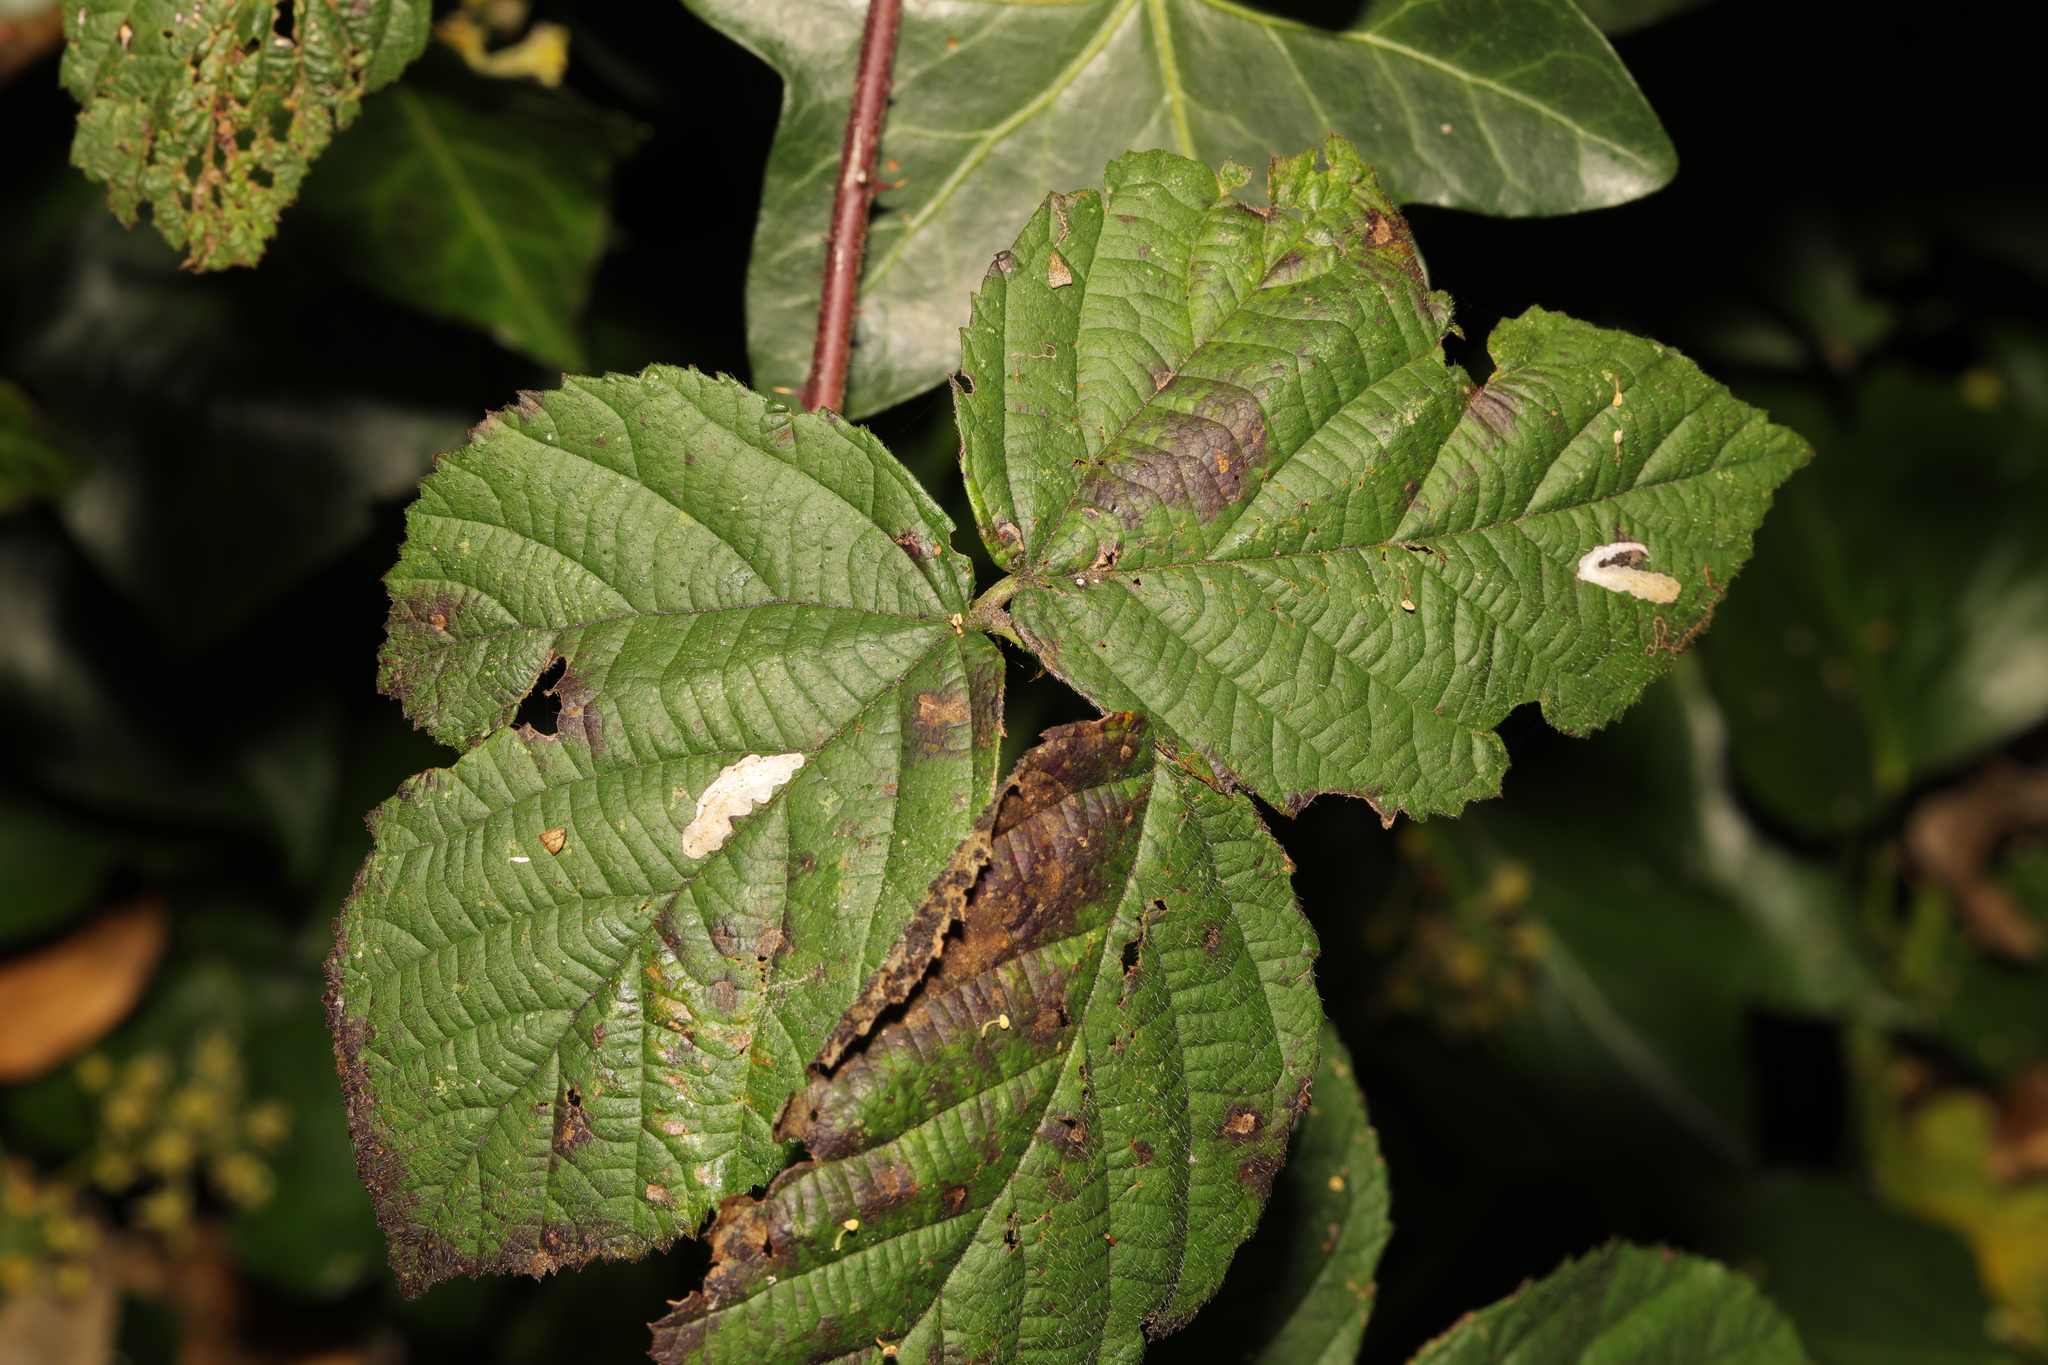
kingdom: Animalia
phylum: Arthropoda
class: Insecta
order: Lepidoptera
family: Tischeriidae
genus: Coptotriche
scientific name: Coptotriche marginea
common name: Bordered carl
